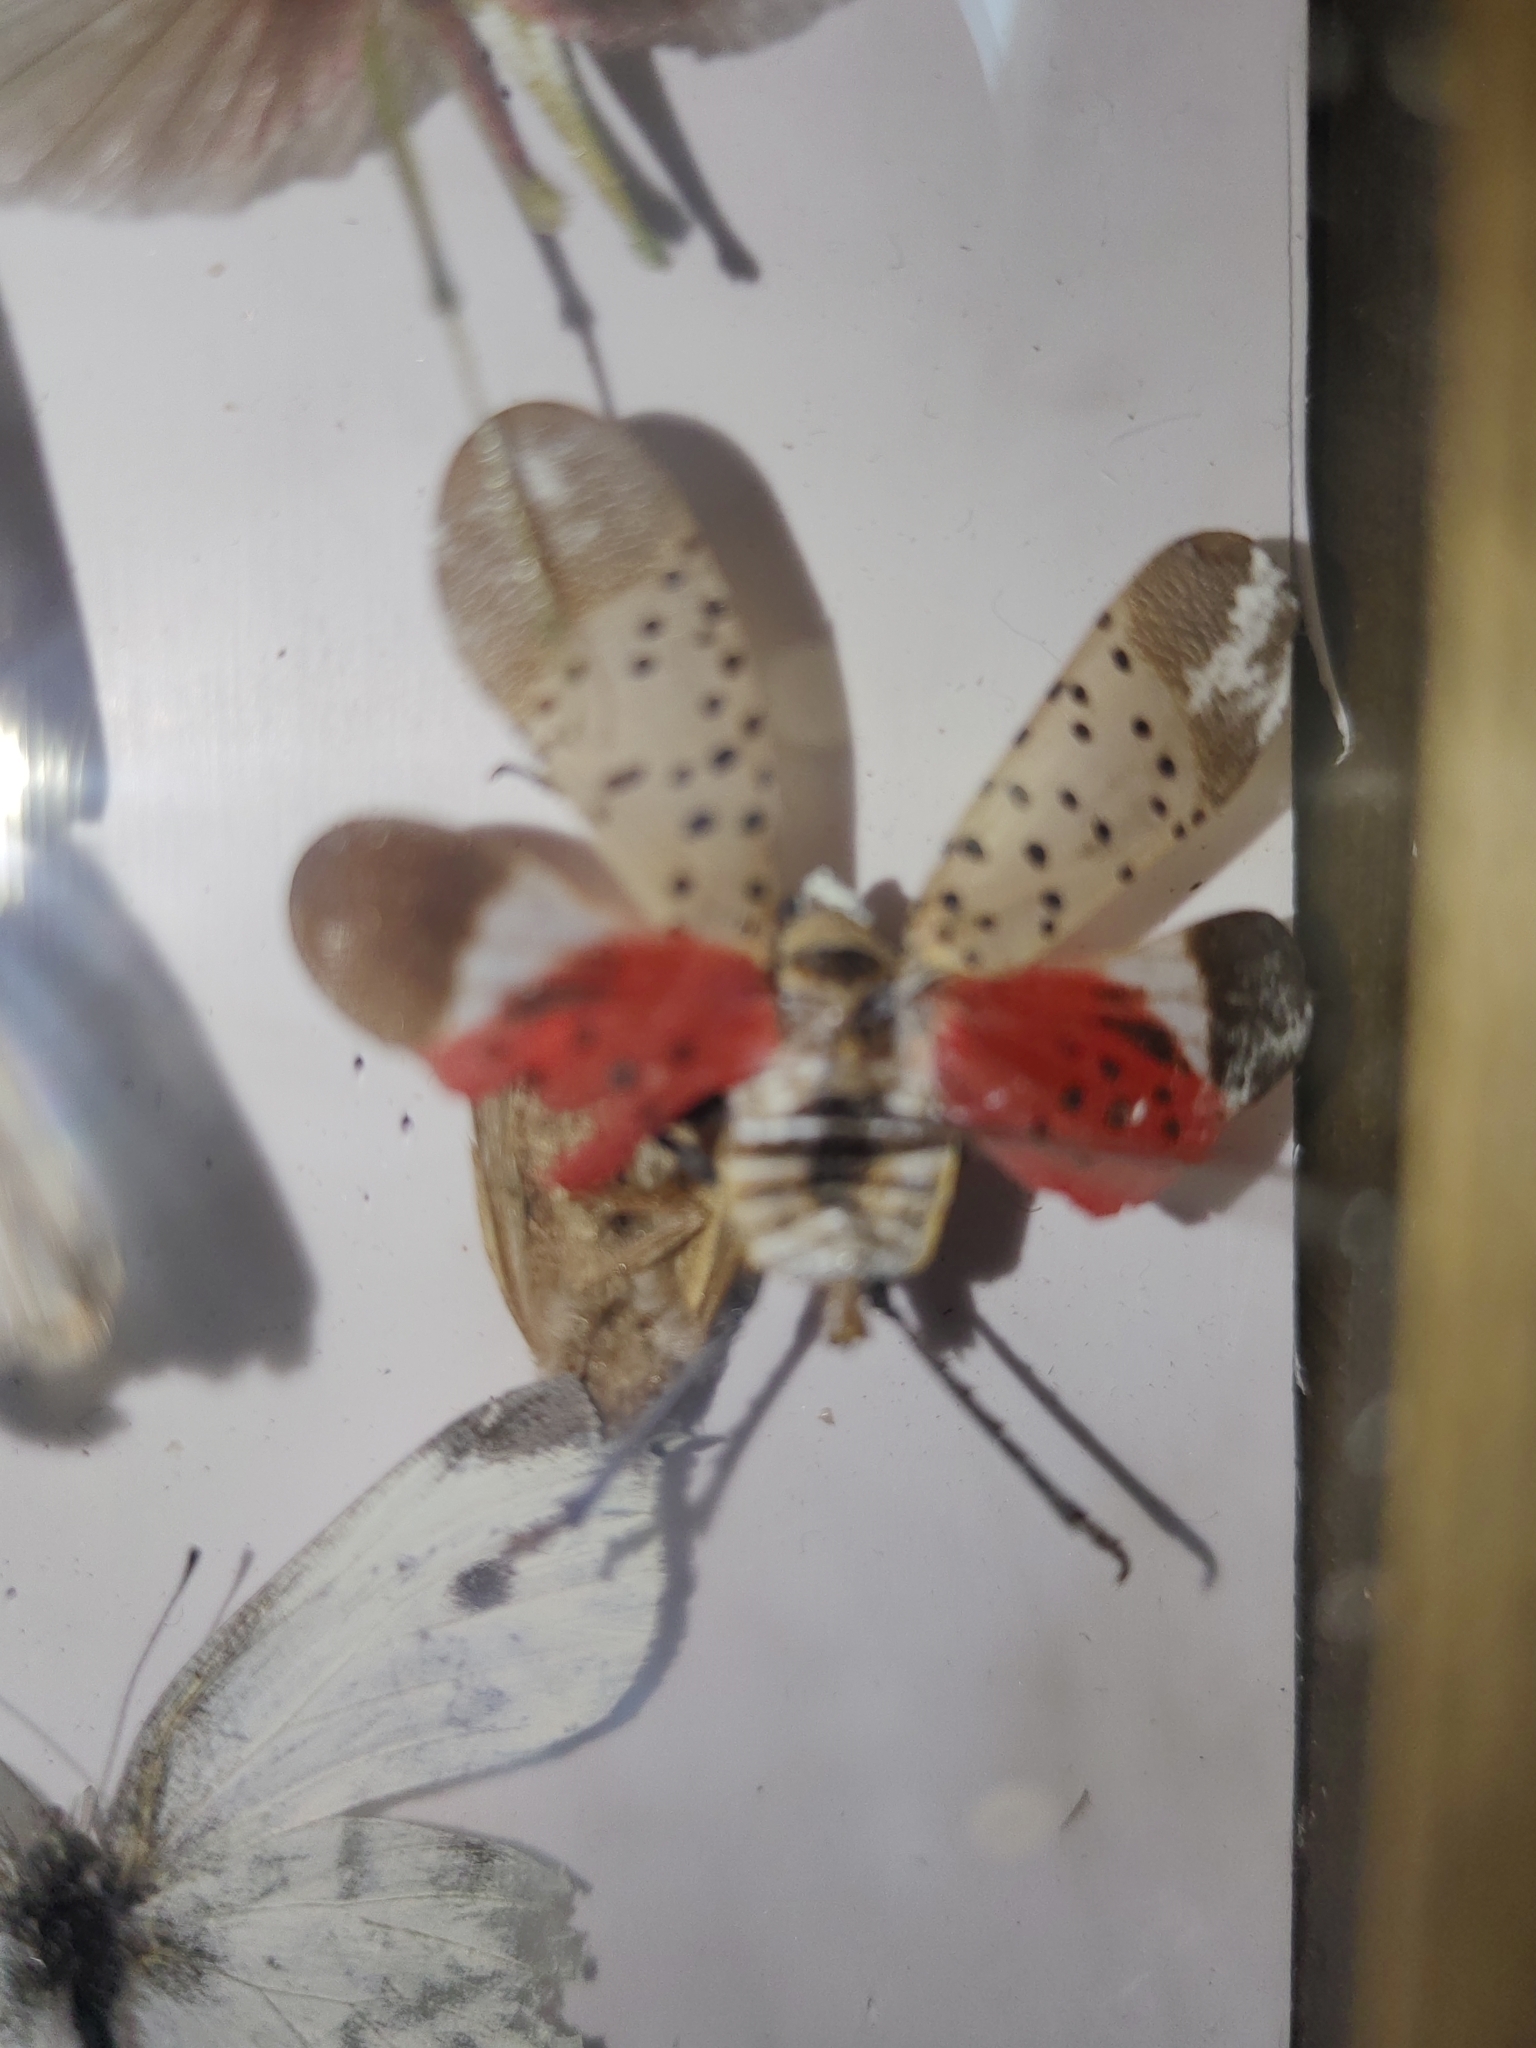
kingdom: Animalia
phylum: Arthropoda
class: Insecta
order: Hemiptera
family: Fulgoridae
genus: Lycorma
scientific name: Lycorma delicatula
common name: Spotted lanternfly
